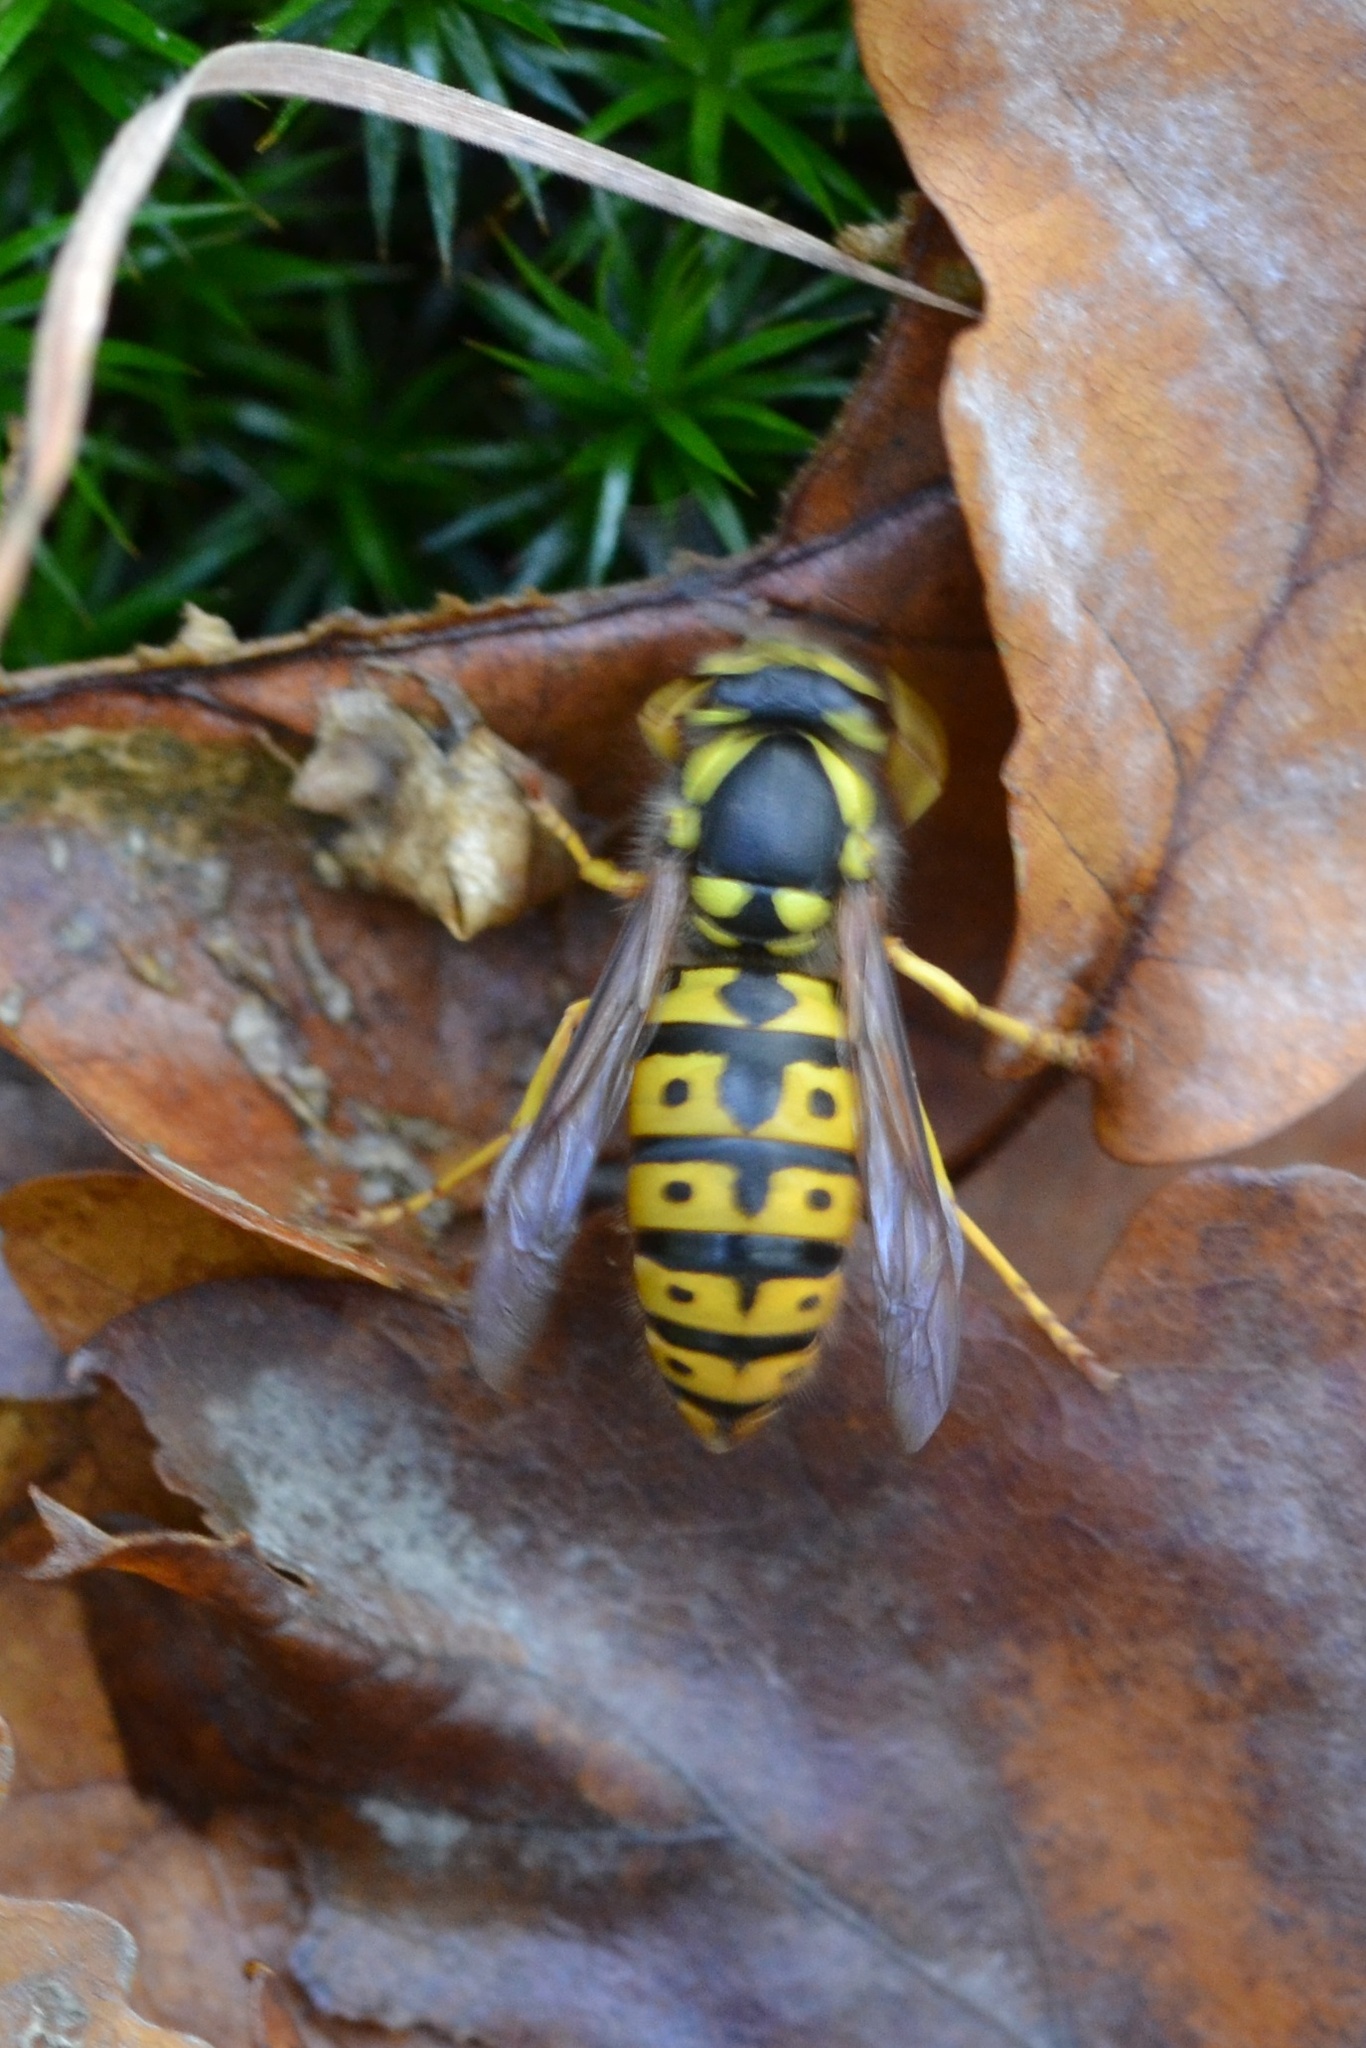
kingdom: Animalia
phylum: Arthropoda
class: Insecta
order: Hymenoptera
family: Vespidae
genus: Vespula
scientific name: Vespula germanica
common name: German wasp
